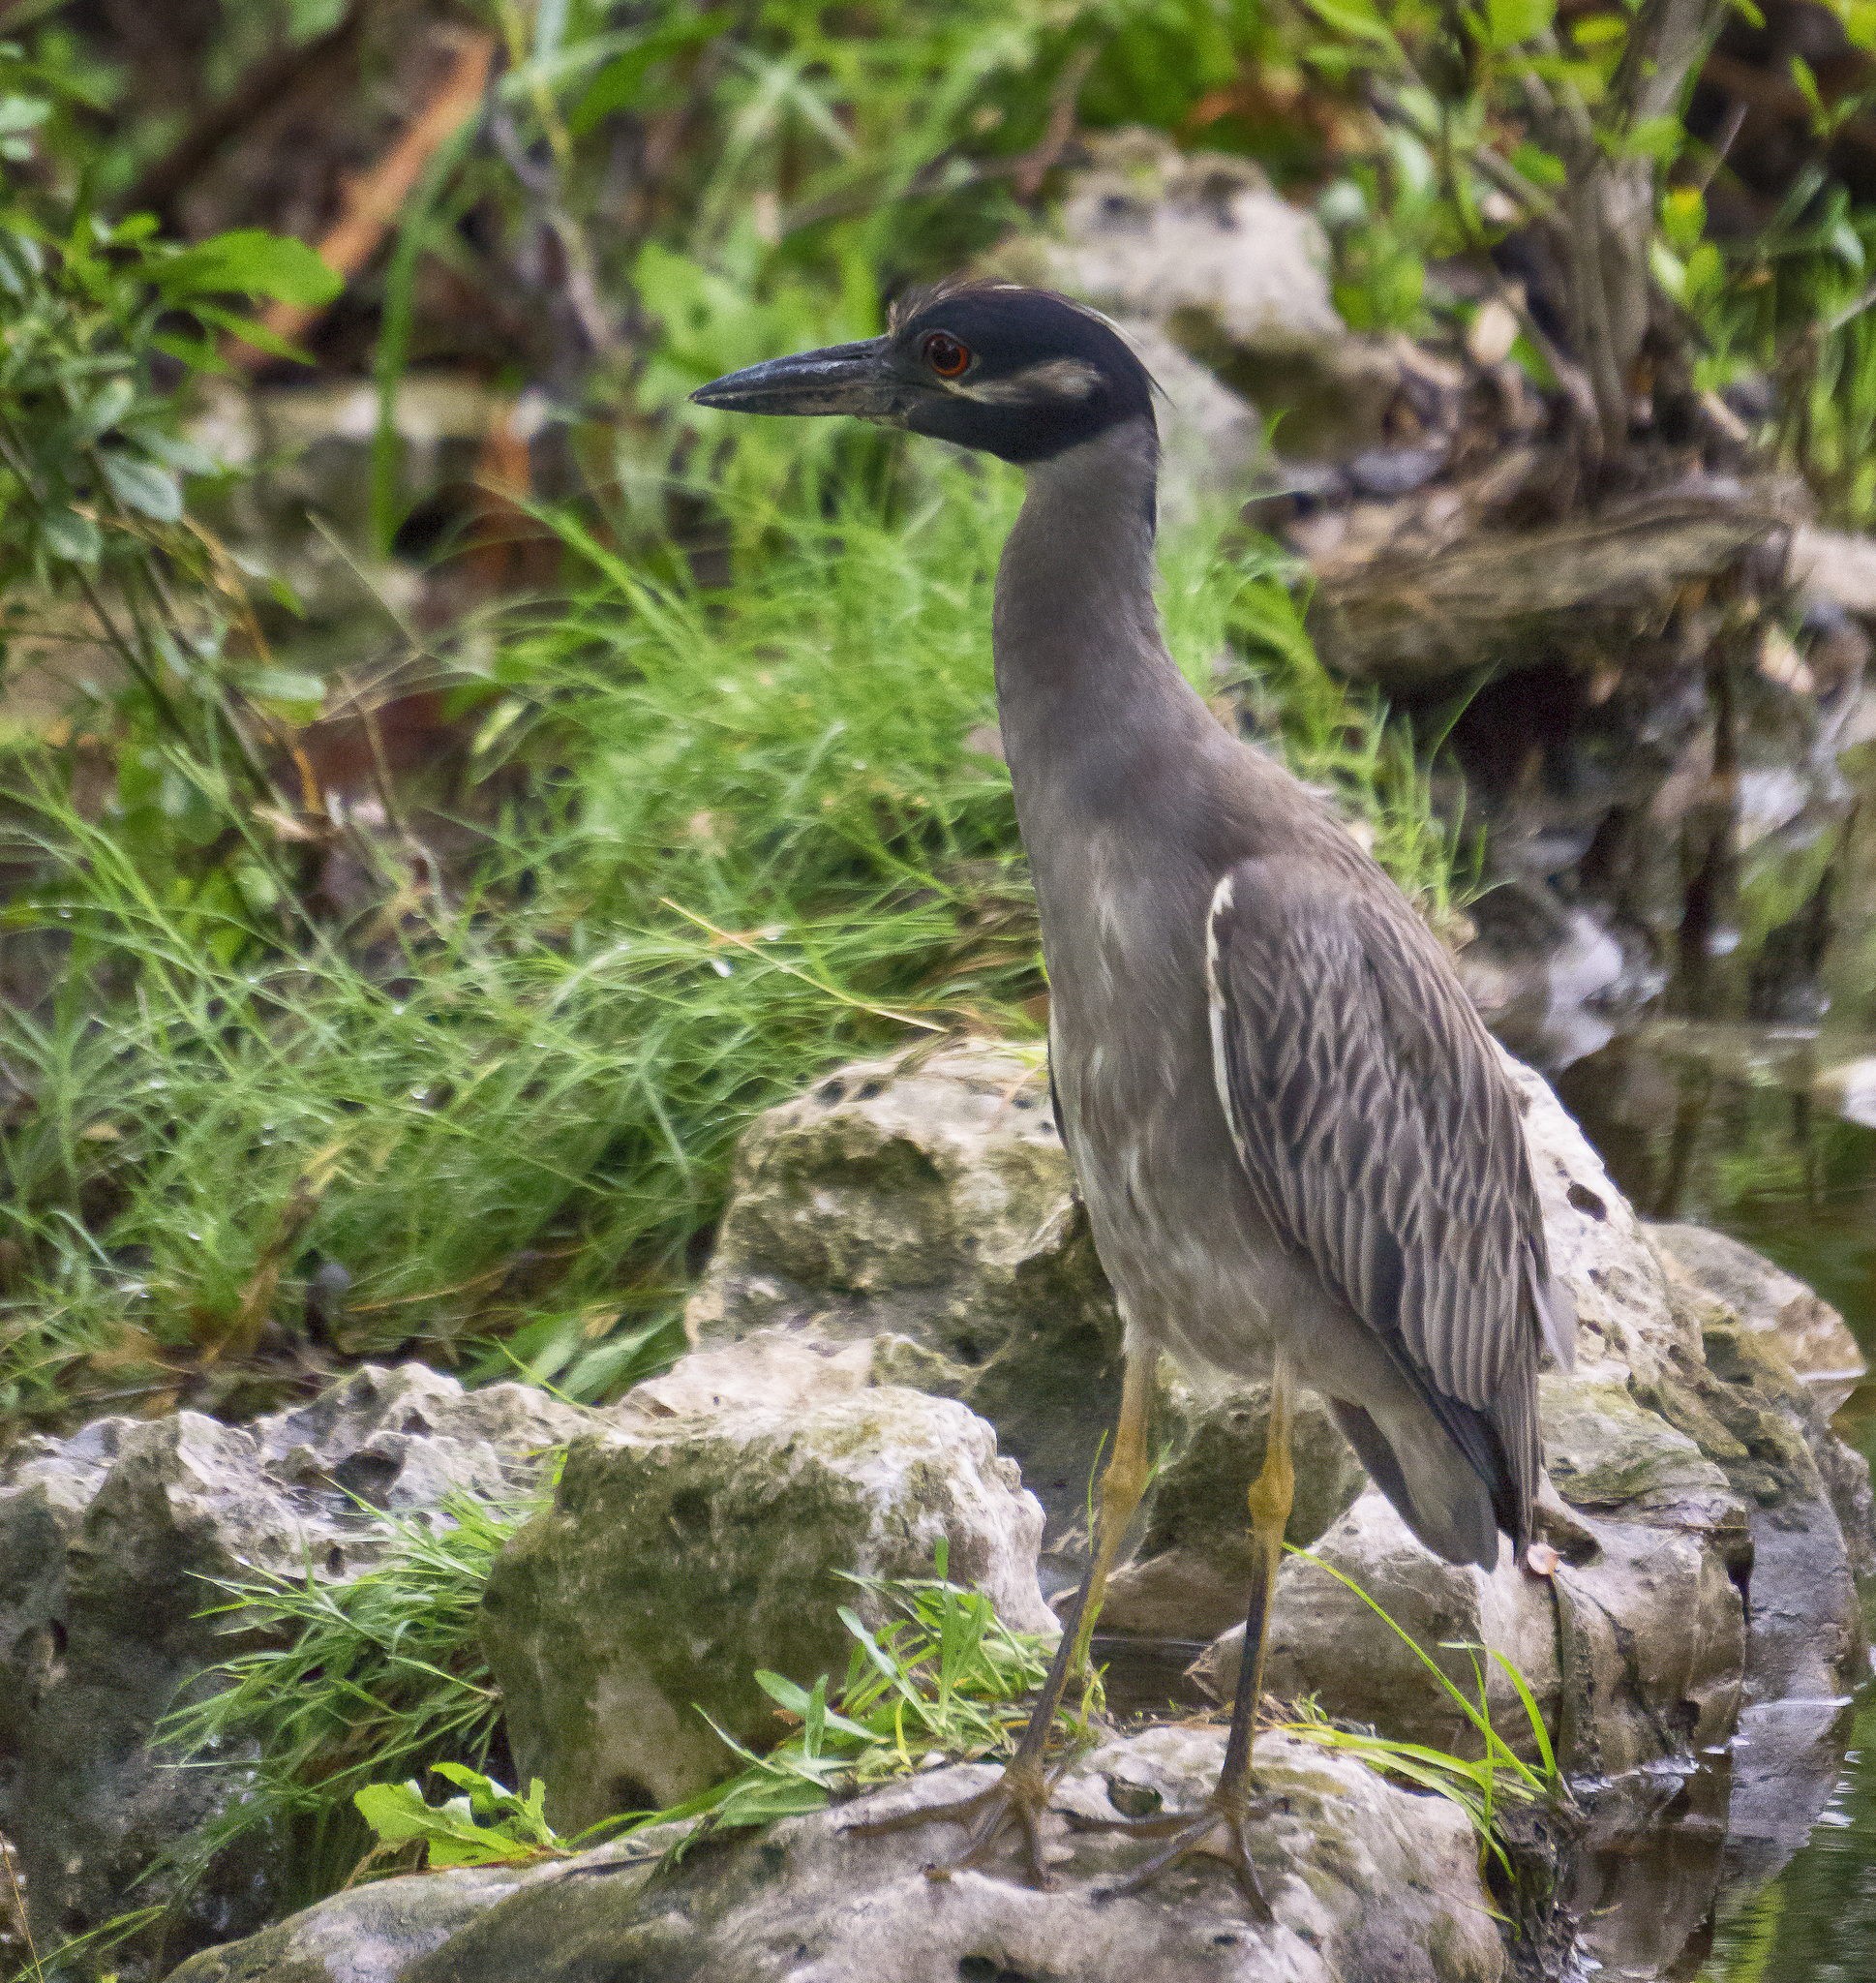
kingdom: Animalia
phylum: Chordata
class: Aves
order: Pelecaniformes
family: Ardeidae
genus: Nyctanassa
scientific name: Nyctanassa violacea
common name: Yellow-crowned night heron
